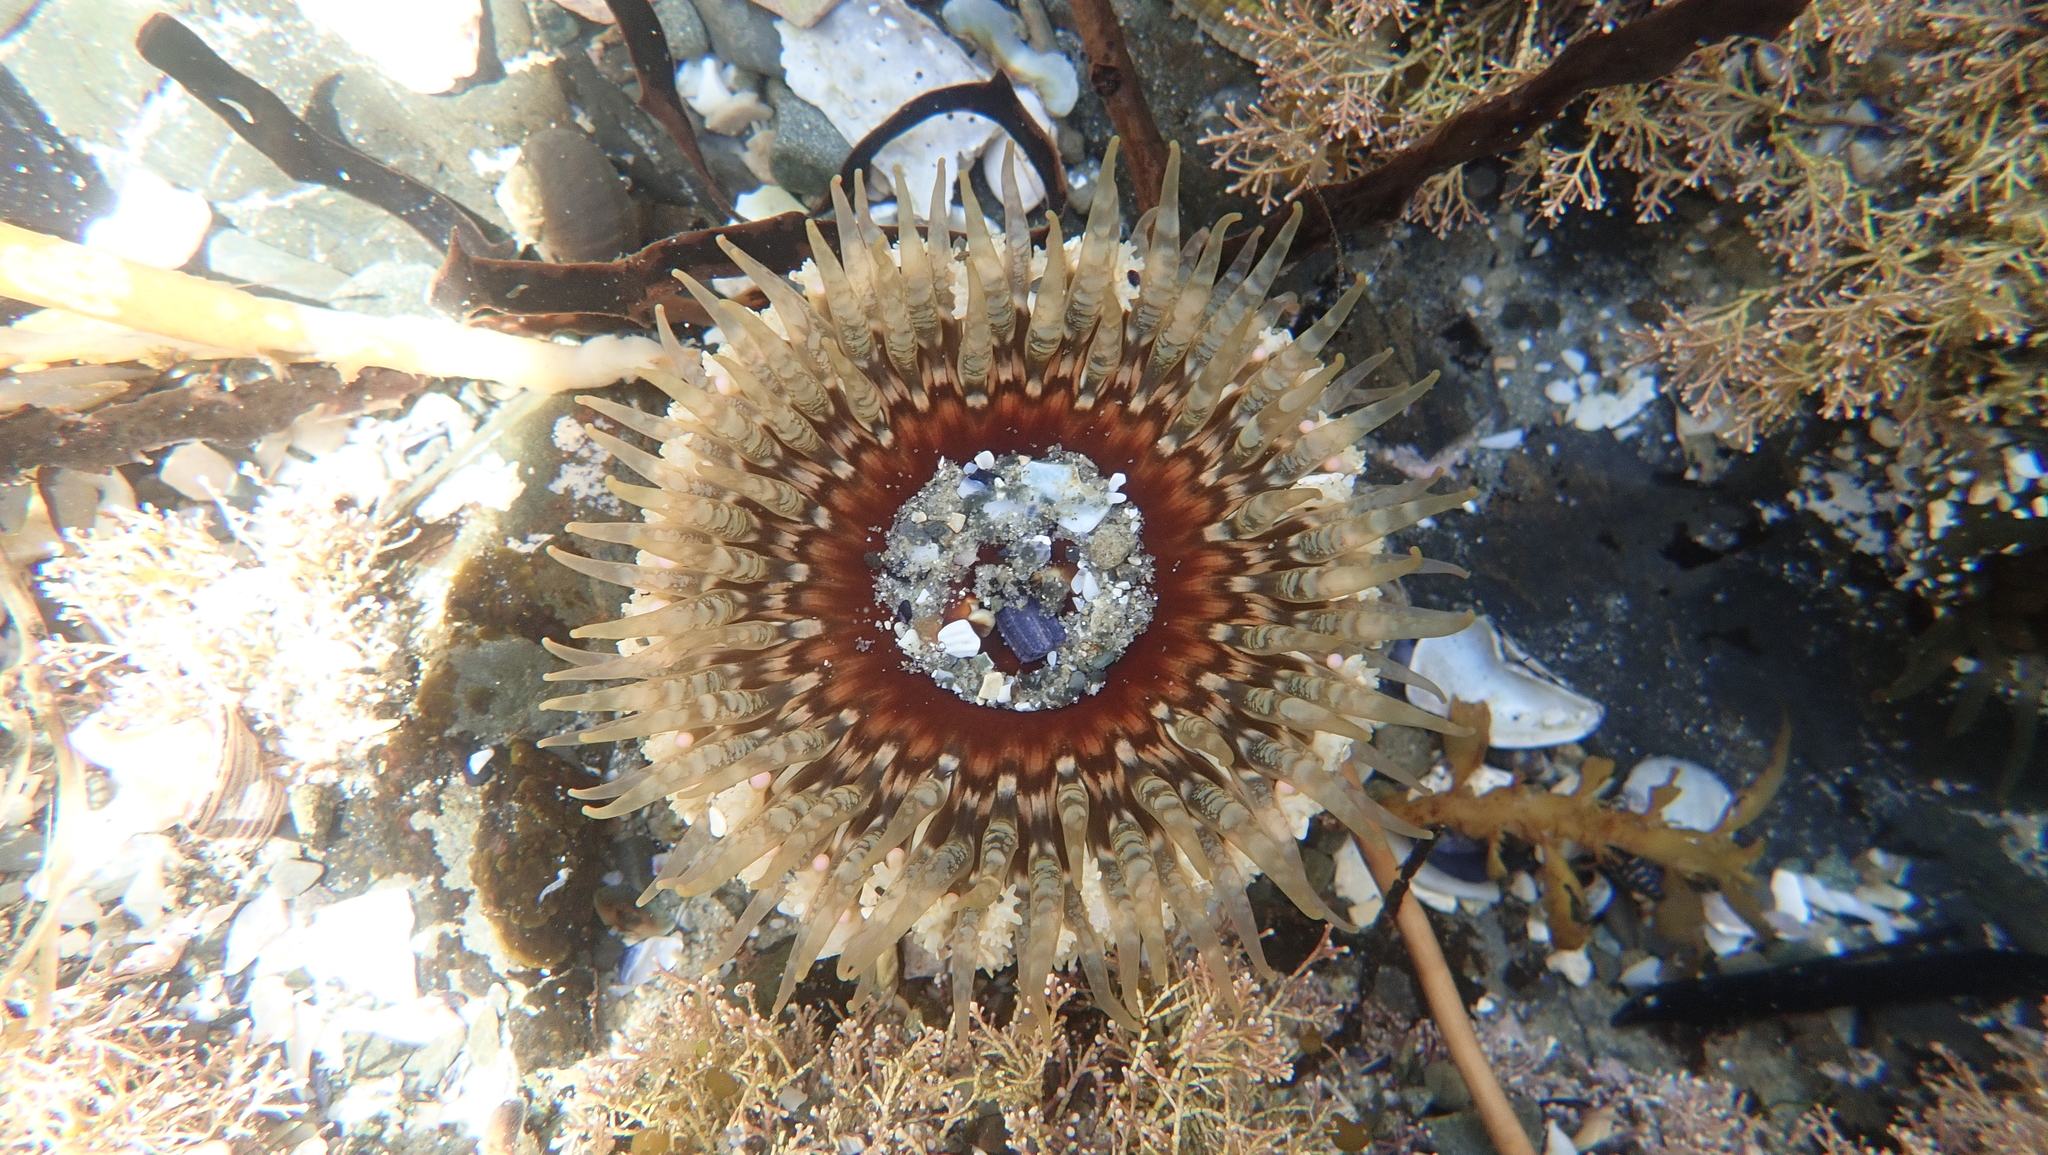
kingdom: Animalia
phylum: Cnidaria
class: Anthozoa
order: Actiniaria
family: Actiniidae
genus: Oulactis
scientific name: Oulactis muscosa
